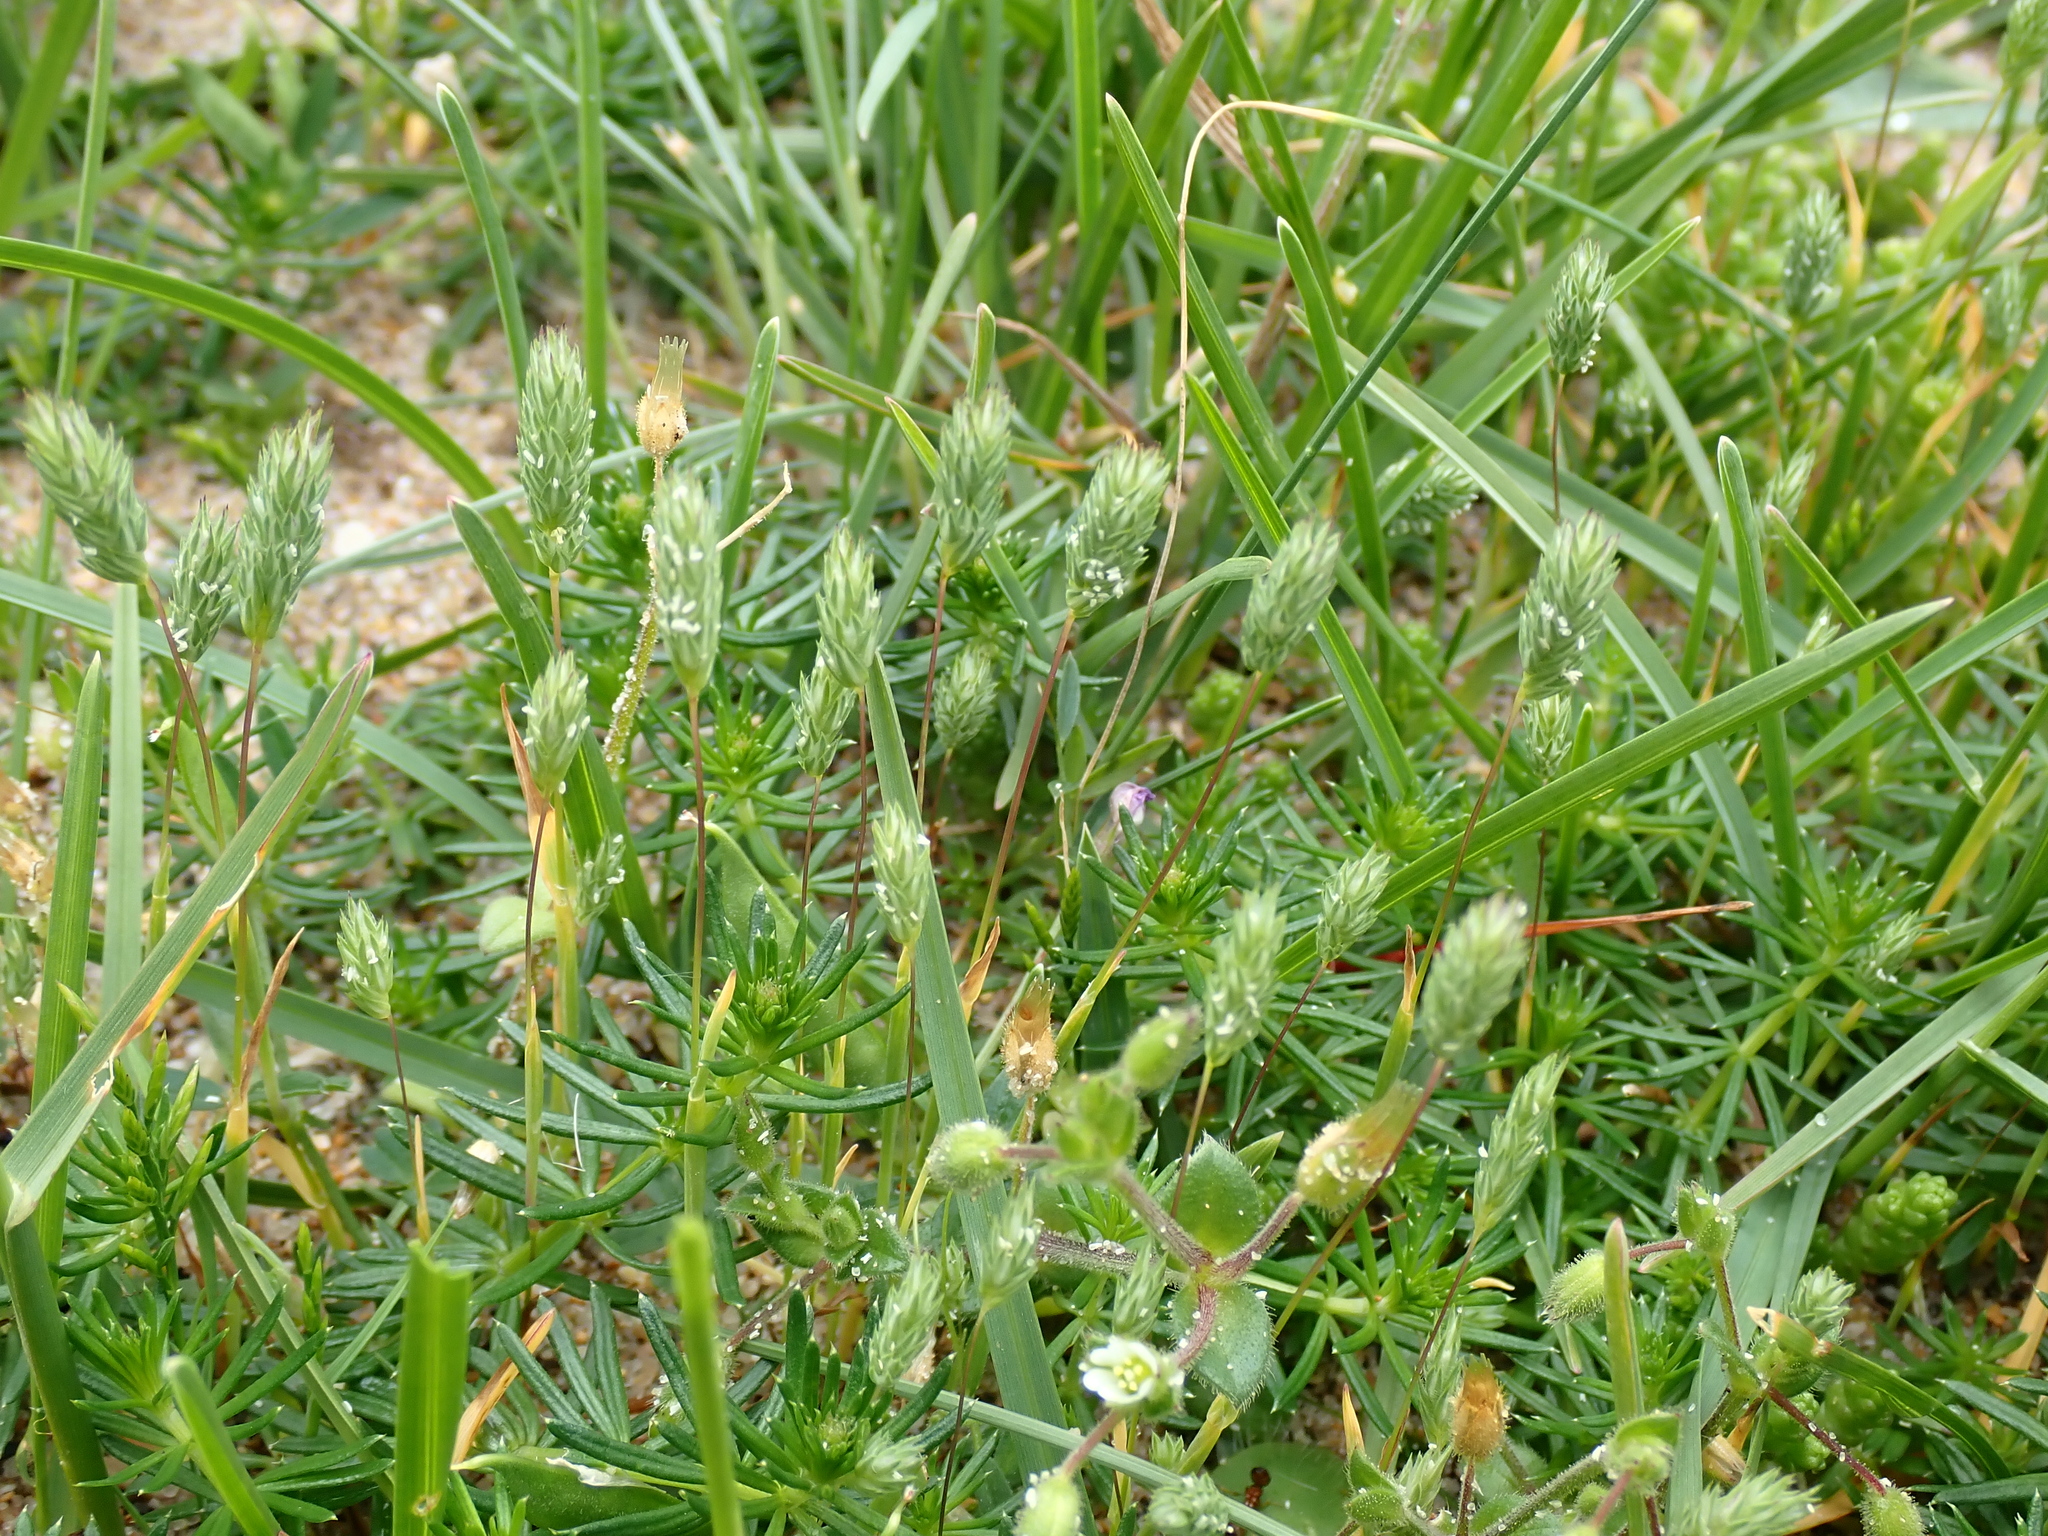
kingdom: Plantae
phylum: Tracheophyta
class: Liliopsida
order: Poales
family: Poaceae
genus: Phleum
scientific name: Phleum arenarium
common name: Sand cat's-tail
